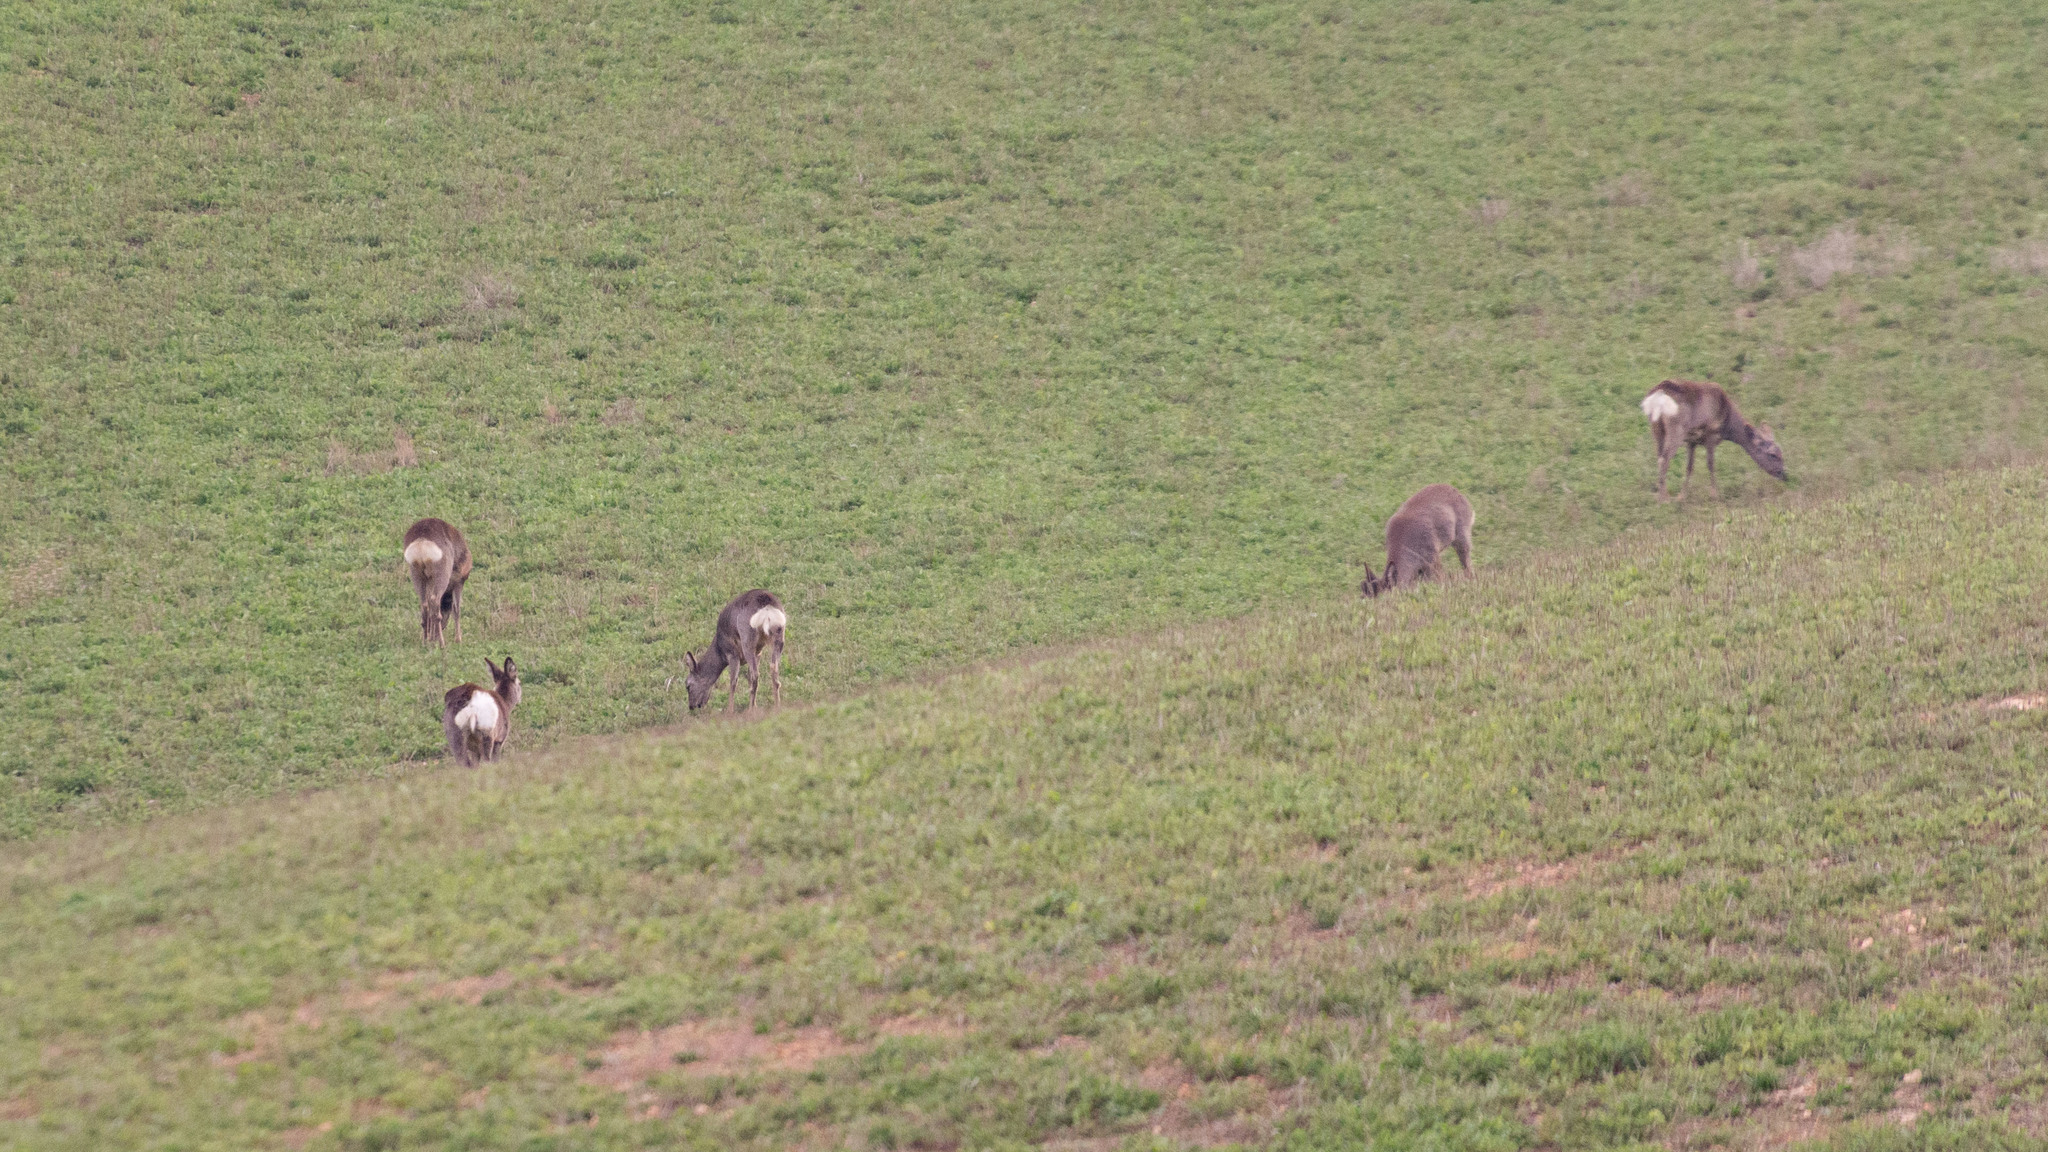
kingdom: Animalia
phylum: Chordata
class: Mammalia
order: Artiodactyla
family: Cervidae
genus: Capreolus
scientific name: Capreolus capreolus
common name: Western roe deer
